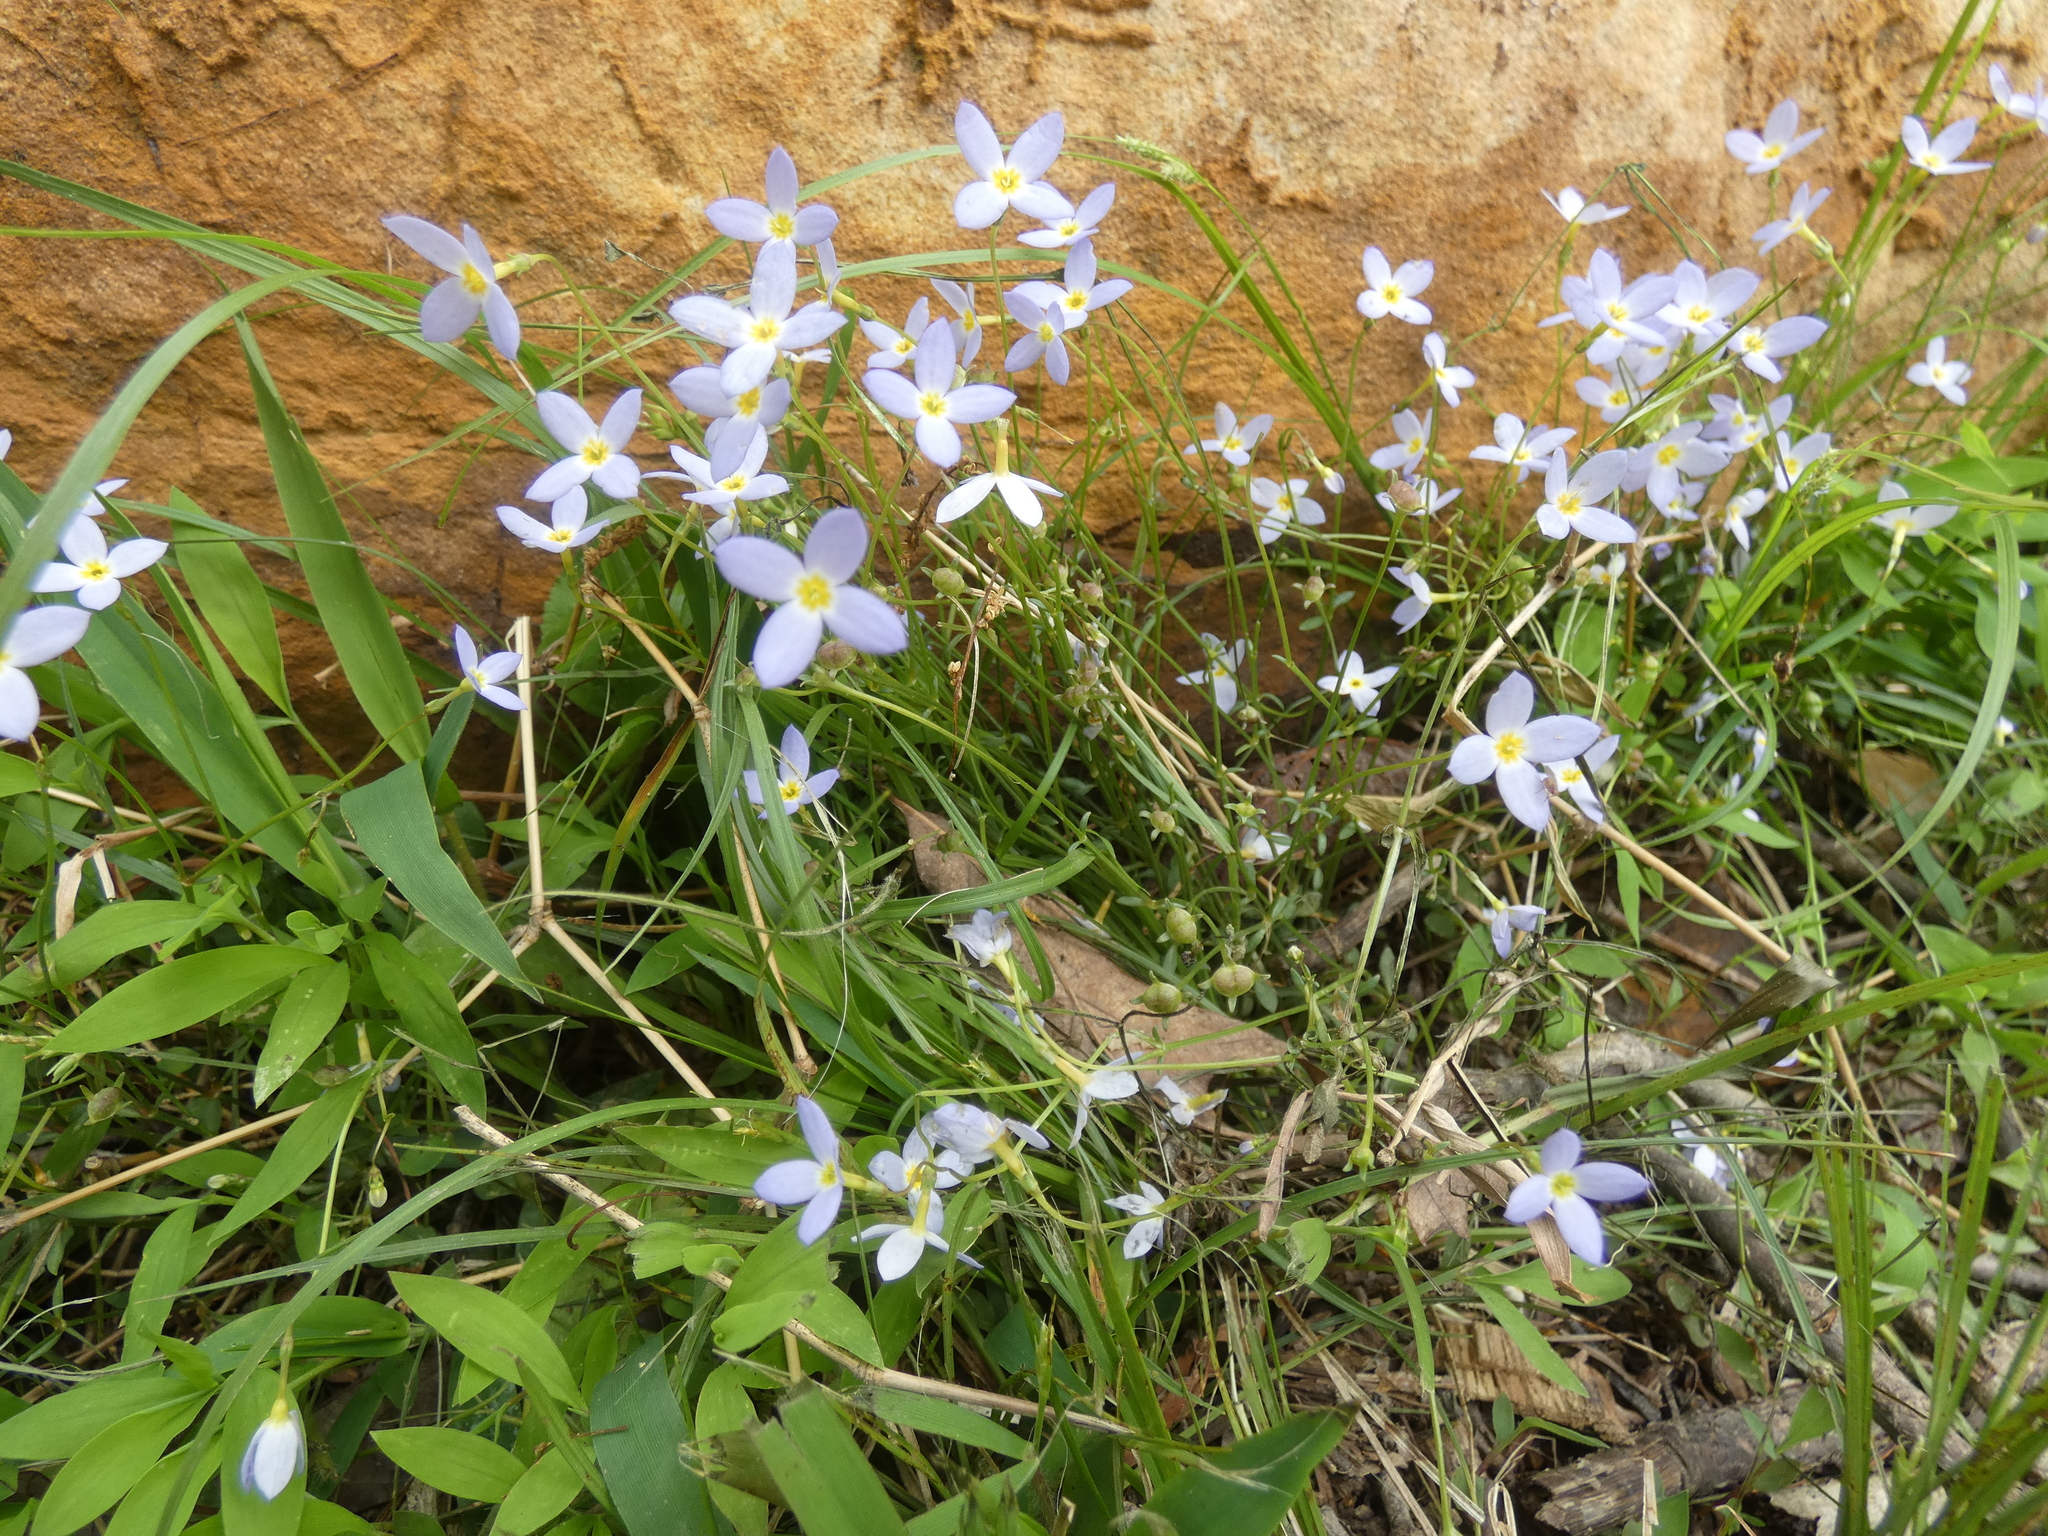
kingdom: Plantae
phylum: Tracheophyta
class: Magnoliopsida
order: Gentianales
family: Rubiaceae
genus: Houstonia
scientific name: Houstonia caerulea
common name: Bluets
